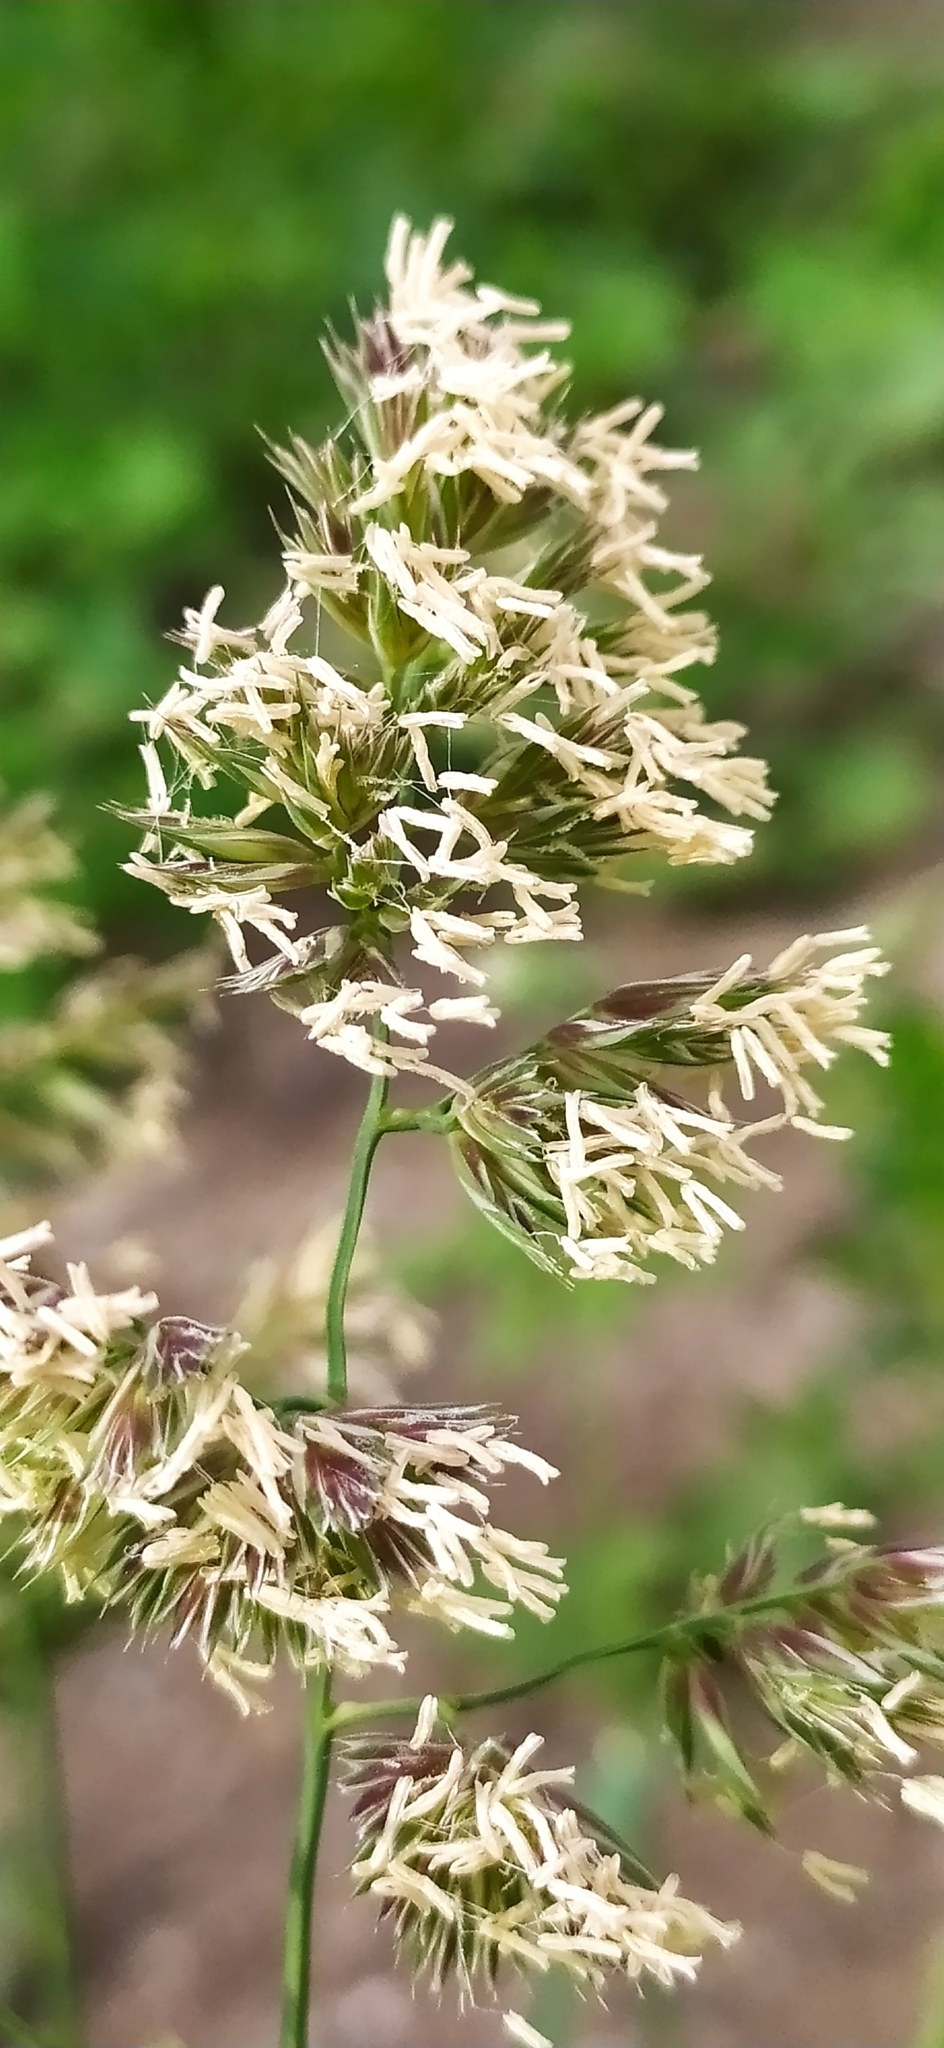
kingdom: Plantae
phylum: Tracheophyta
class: Liliopsida
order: Poales
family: Poaceae
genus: Dactylis
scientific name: Dactylis glomerata
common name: Orchardgrass
